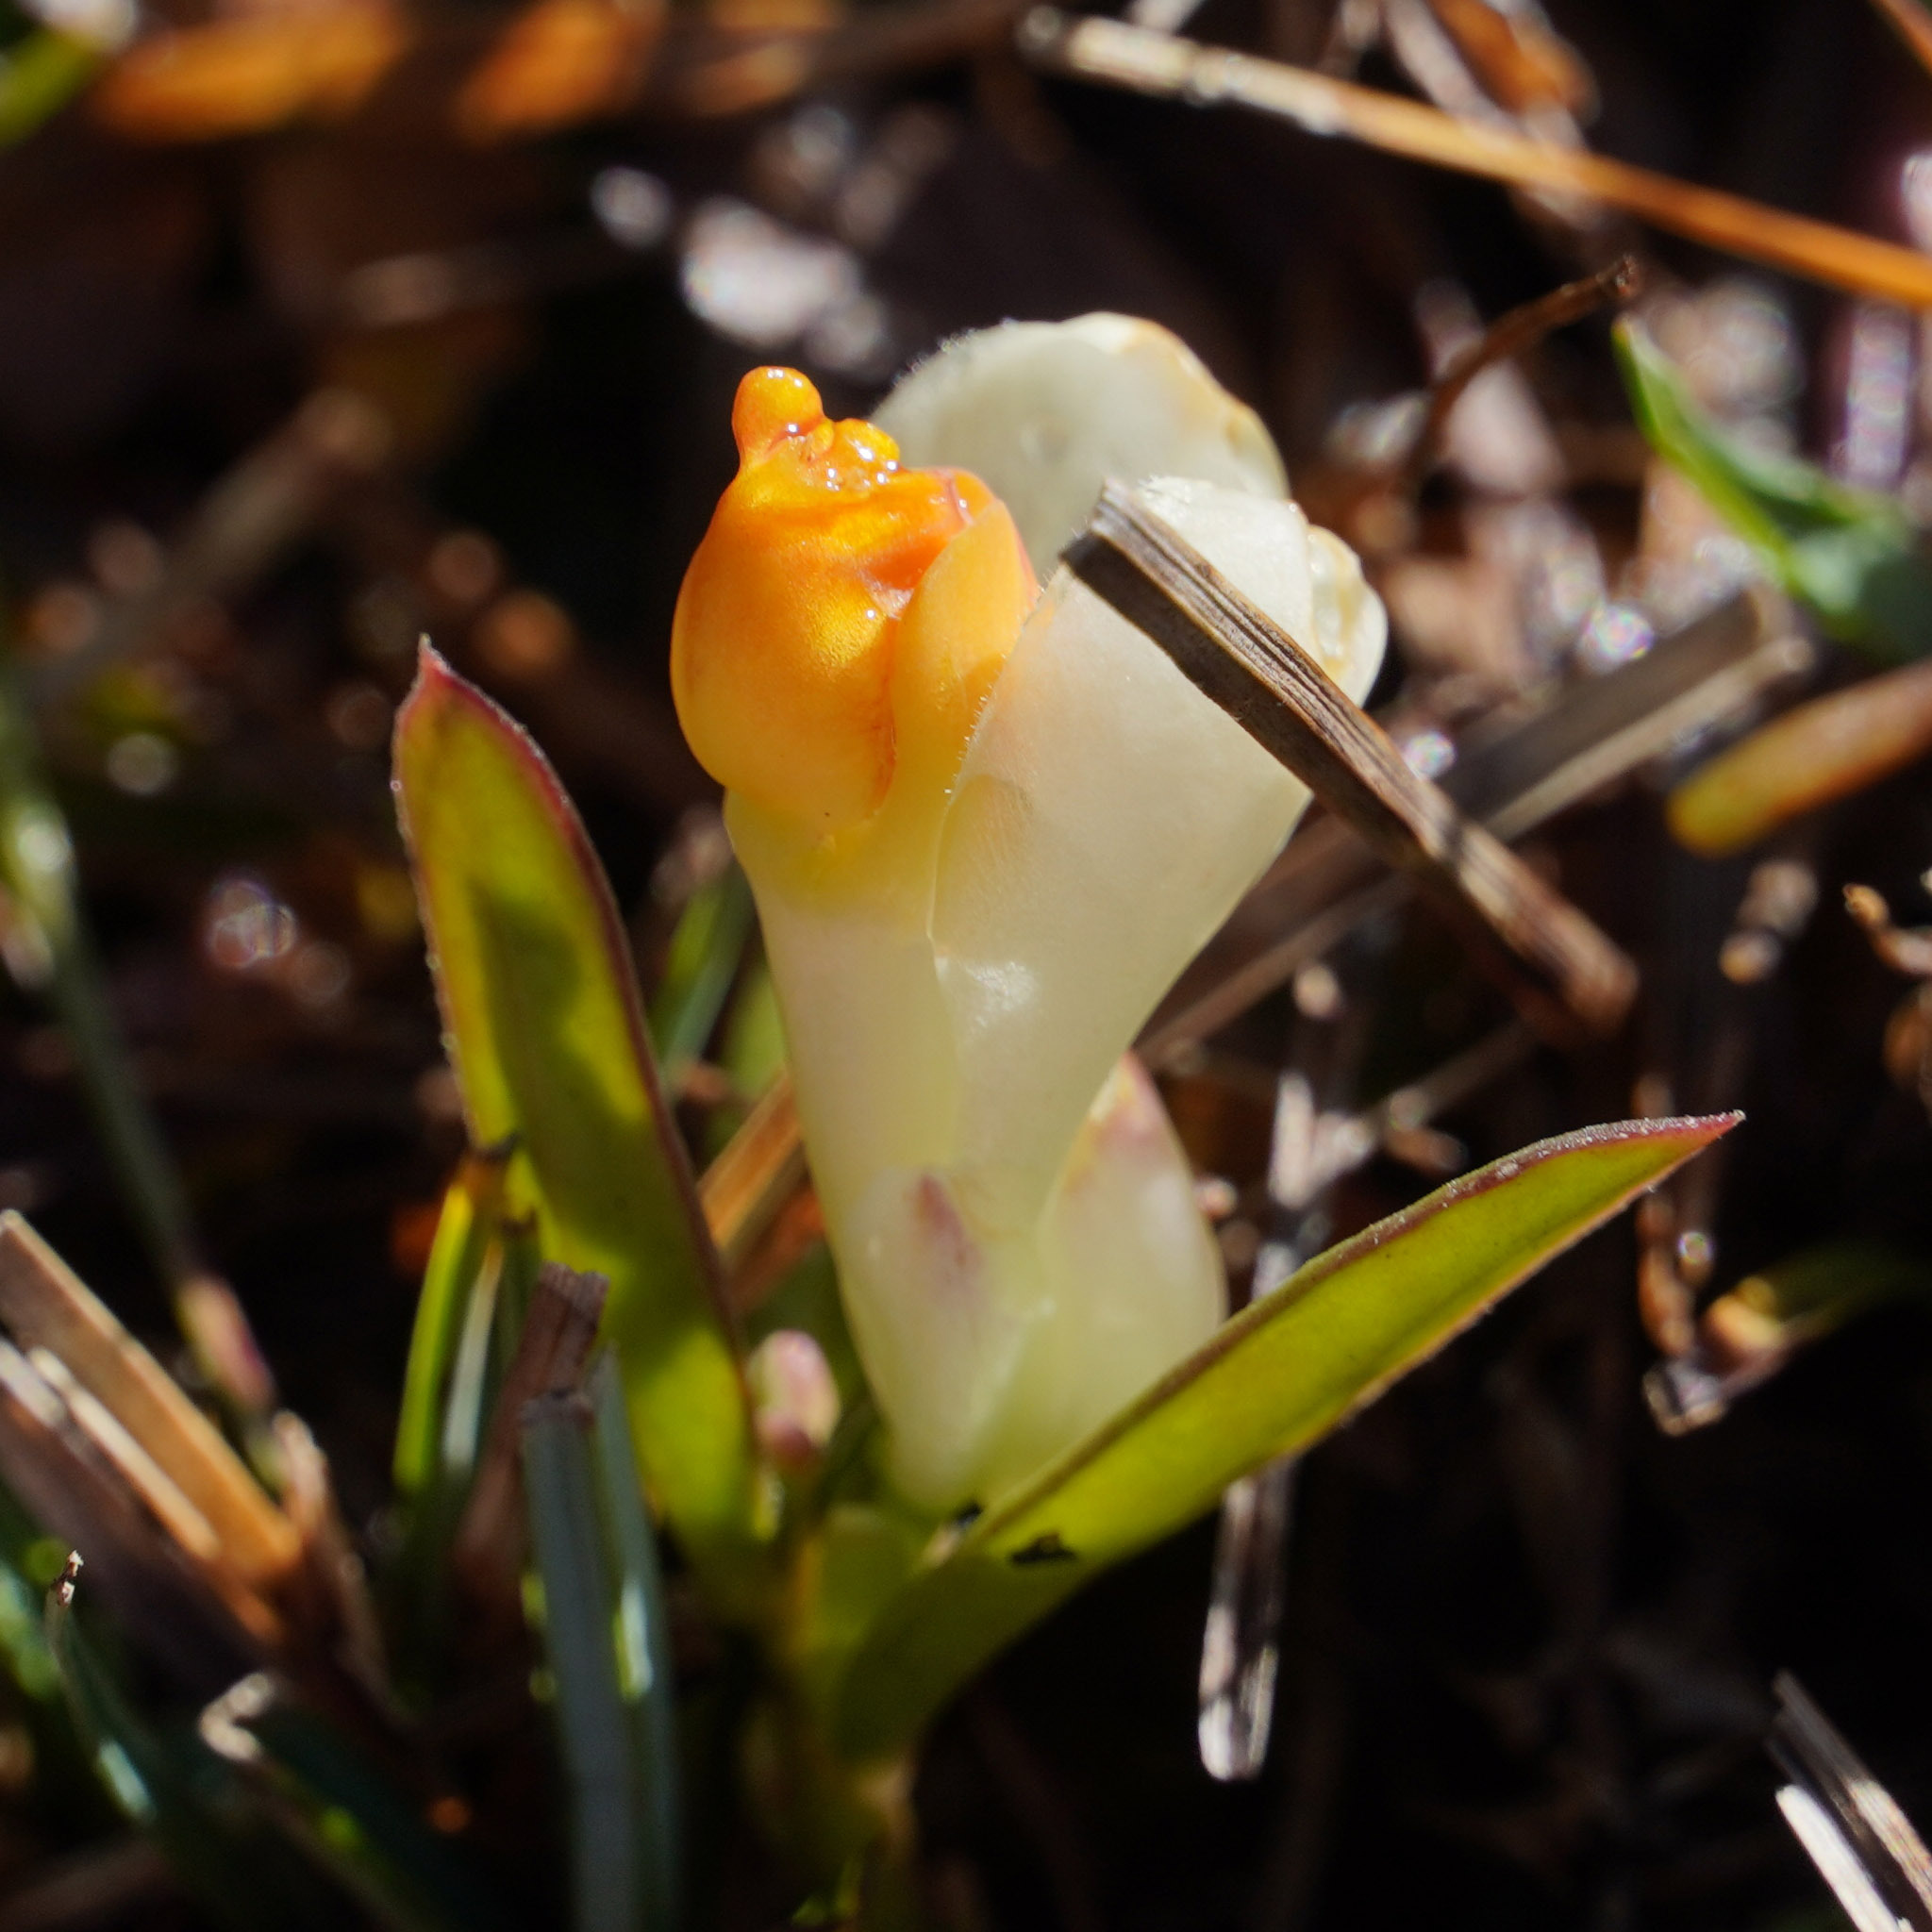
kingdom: Plantae
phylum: Tracheophyta
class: Magnoliopsida
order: Fabales
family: Polygalaceae
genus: Polygaloides
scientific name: Polygaloides chamaebuxus
